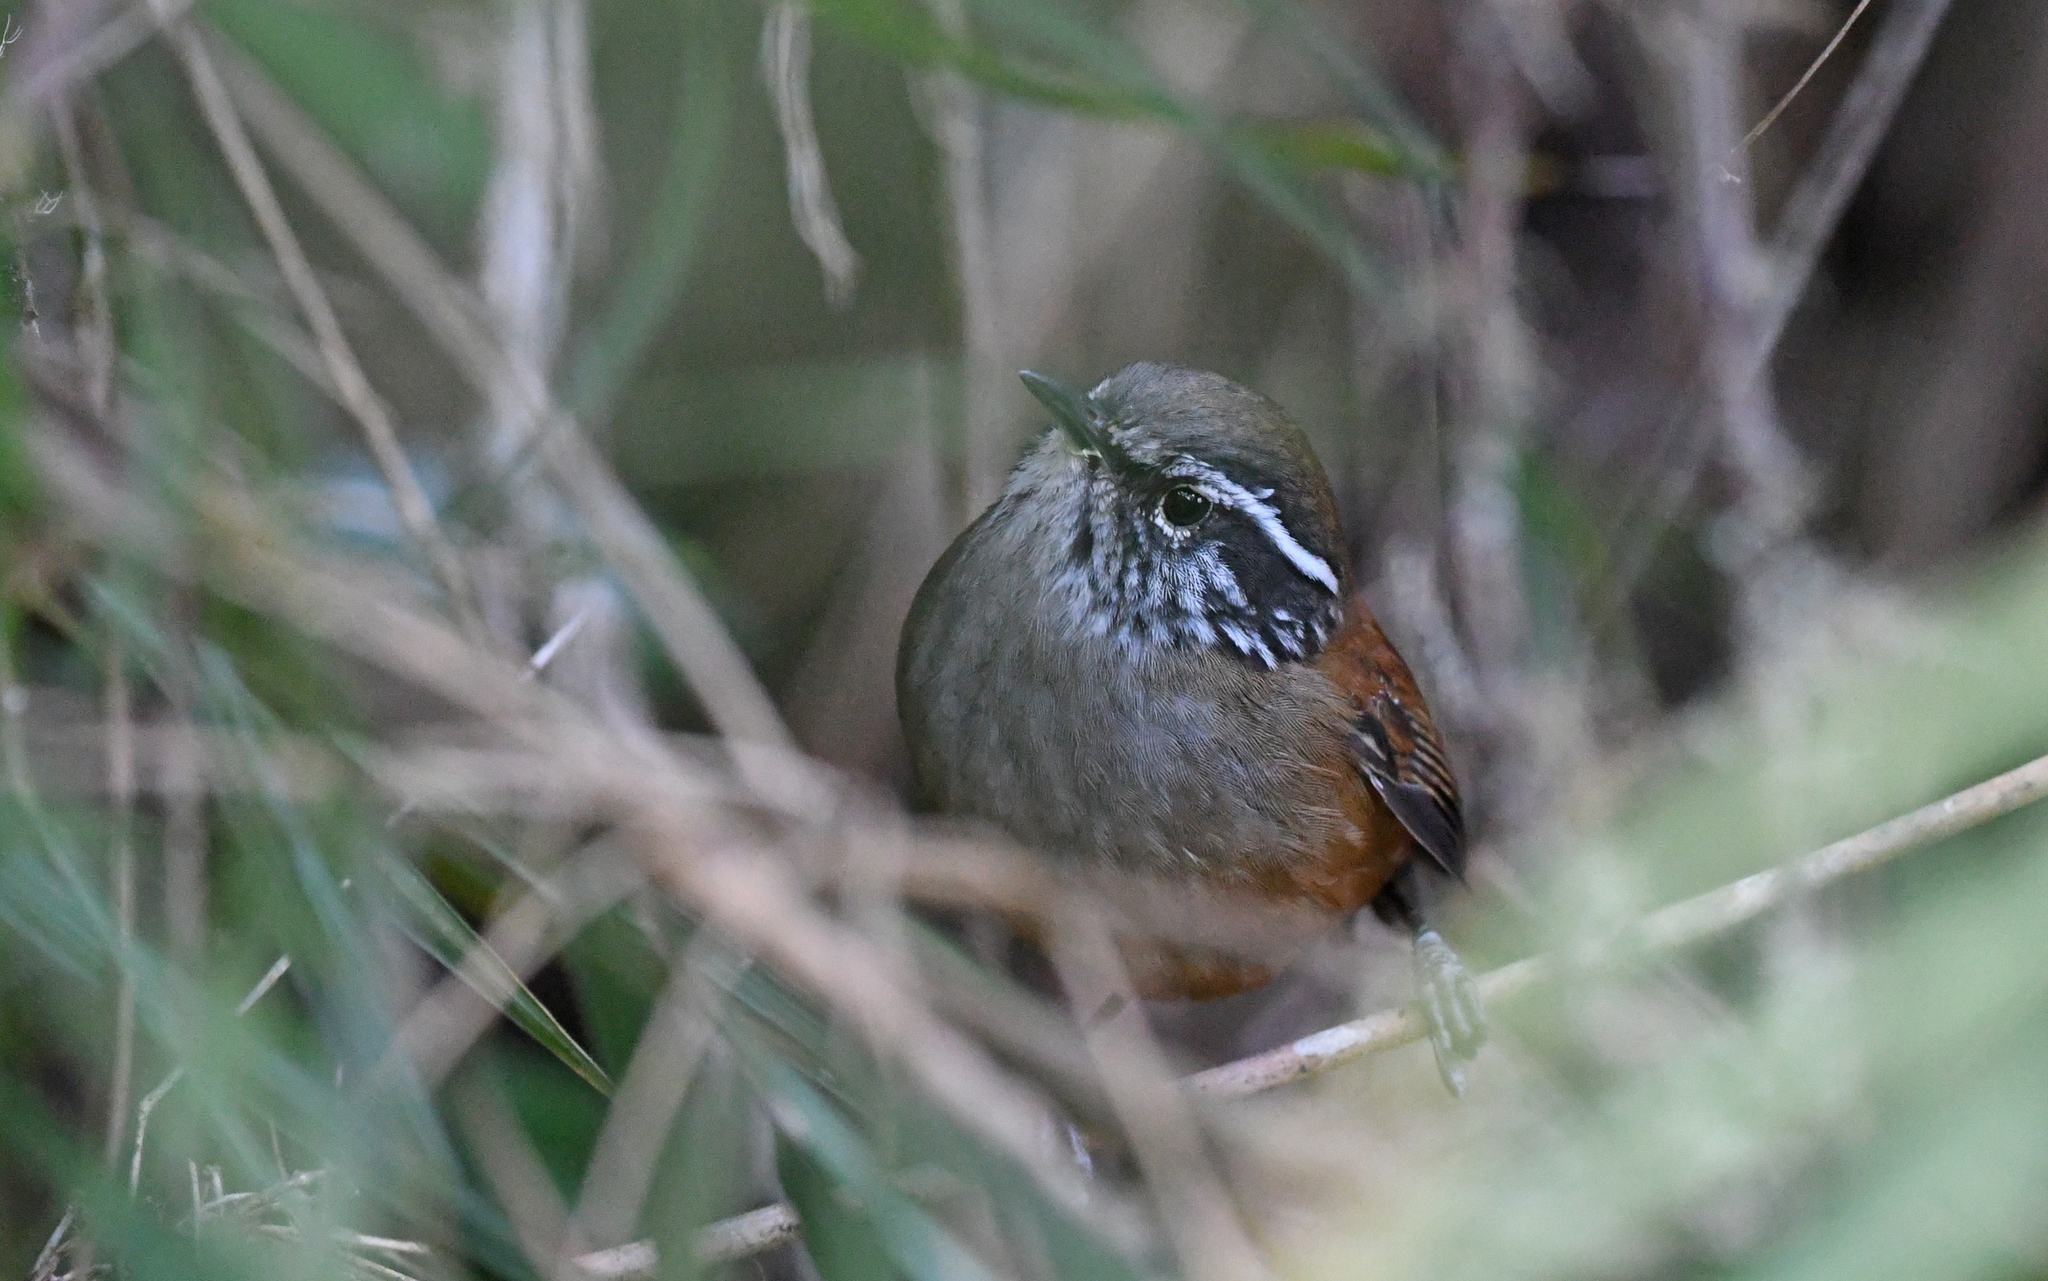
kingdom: Animalia
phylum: Chordata
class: Aves
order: Passeriformes
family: Troglodytidae
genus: Henicorhina
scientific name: Henicorhina anachoreta
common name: Hermit wood-wren
